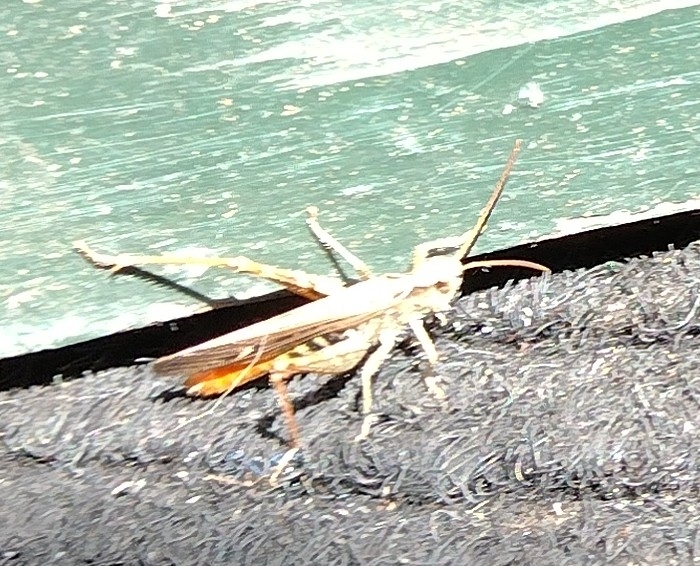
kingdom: Animalia
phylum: Arthropoda
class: Insecta
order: Orthoptera
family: Acrididae
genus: Chorthippus
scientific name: Chorthippus brunneus
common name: Field grasshopper
